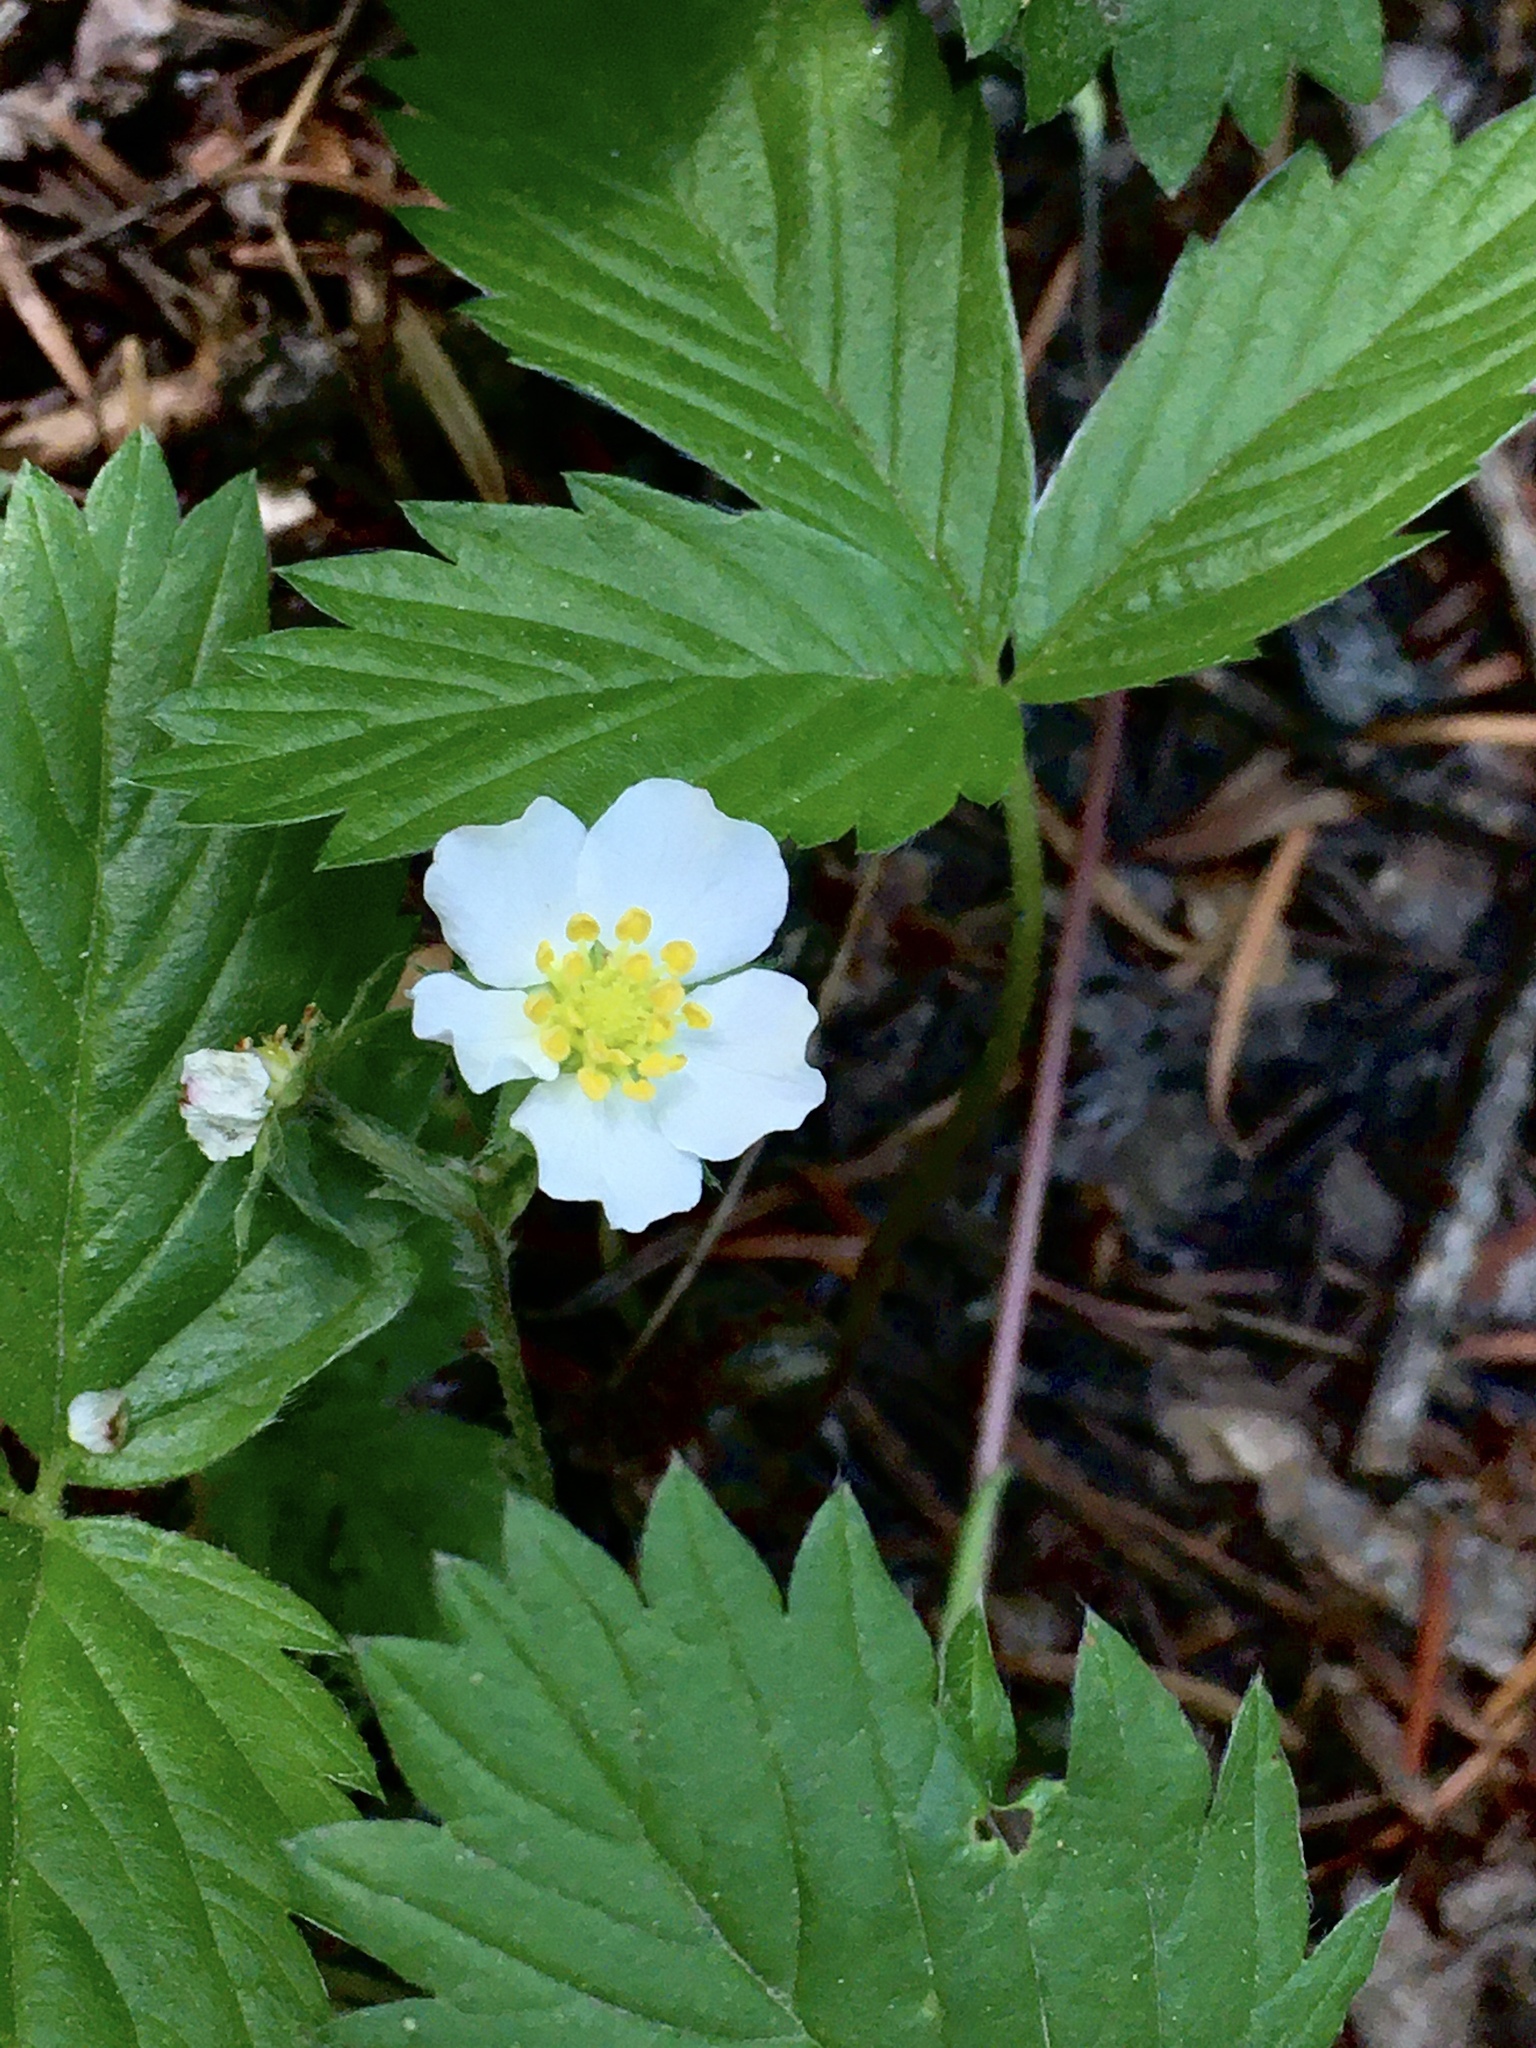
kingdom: Plantae
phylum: Tracheophyta
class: Magnoliopsida
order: Rosales
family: Rosaceae
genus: Fragaria
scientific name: Fragaria vesca
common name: Wild strawberry
